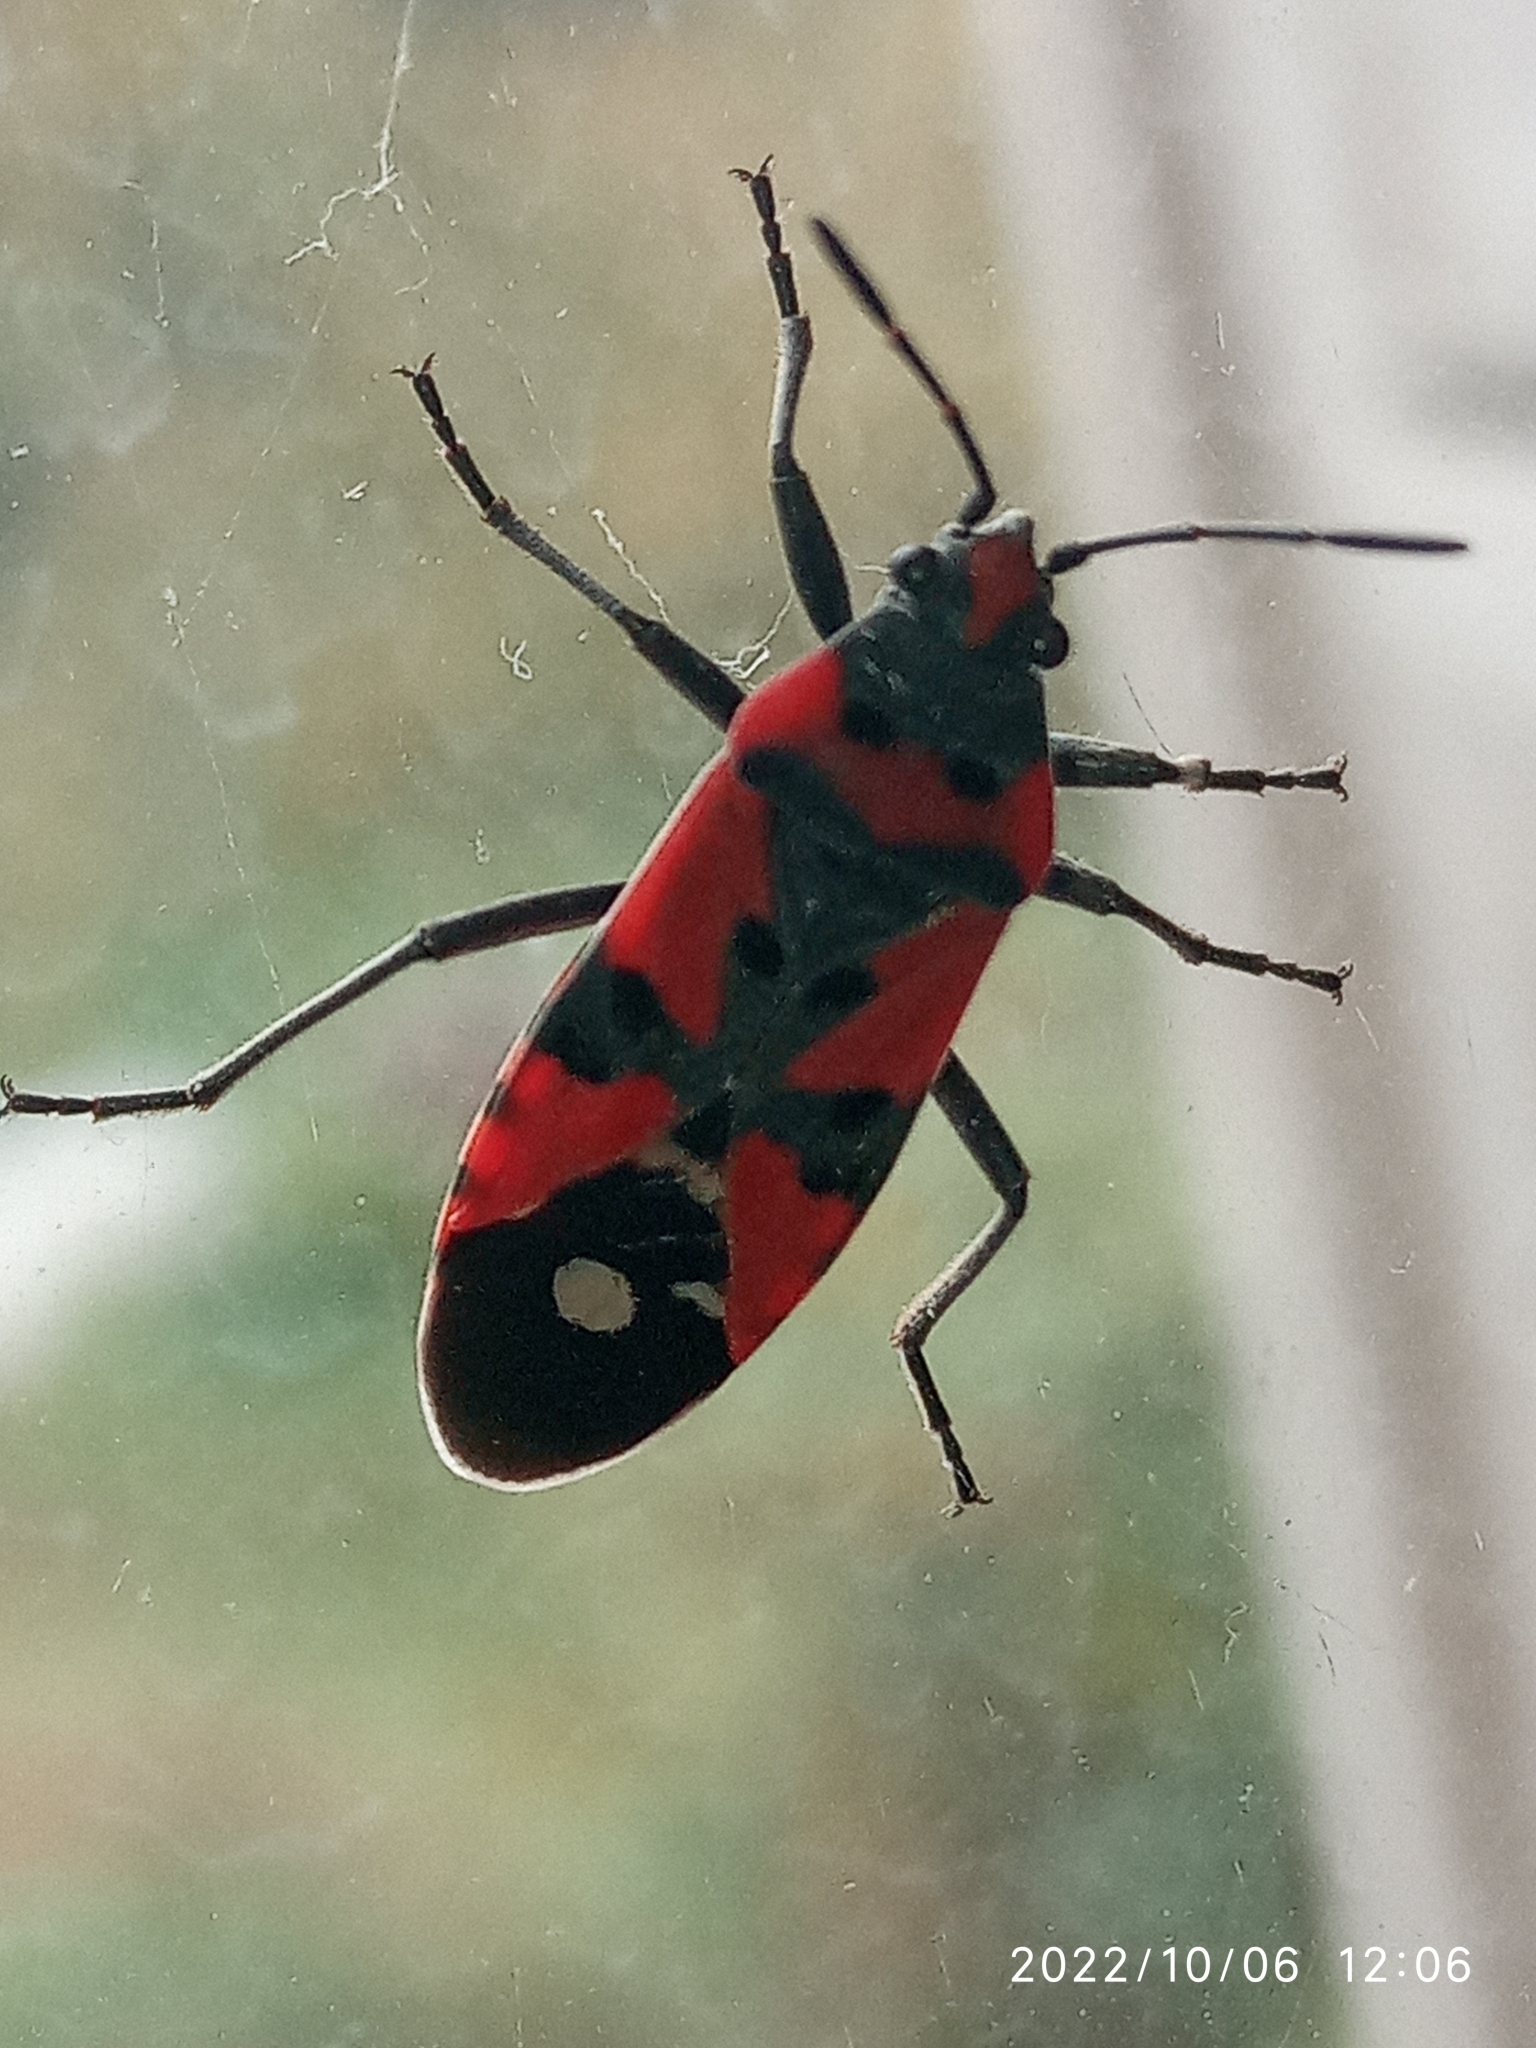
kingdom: Animalia
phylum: Arthropoda
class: Insecta
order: Hemiptera
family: Lygaeidae
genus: Lygaeus
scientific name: Lygaeus equestris
